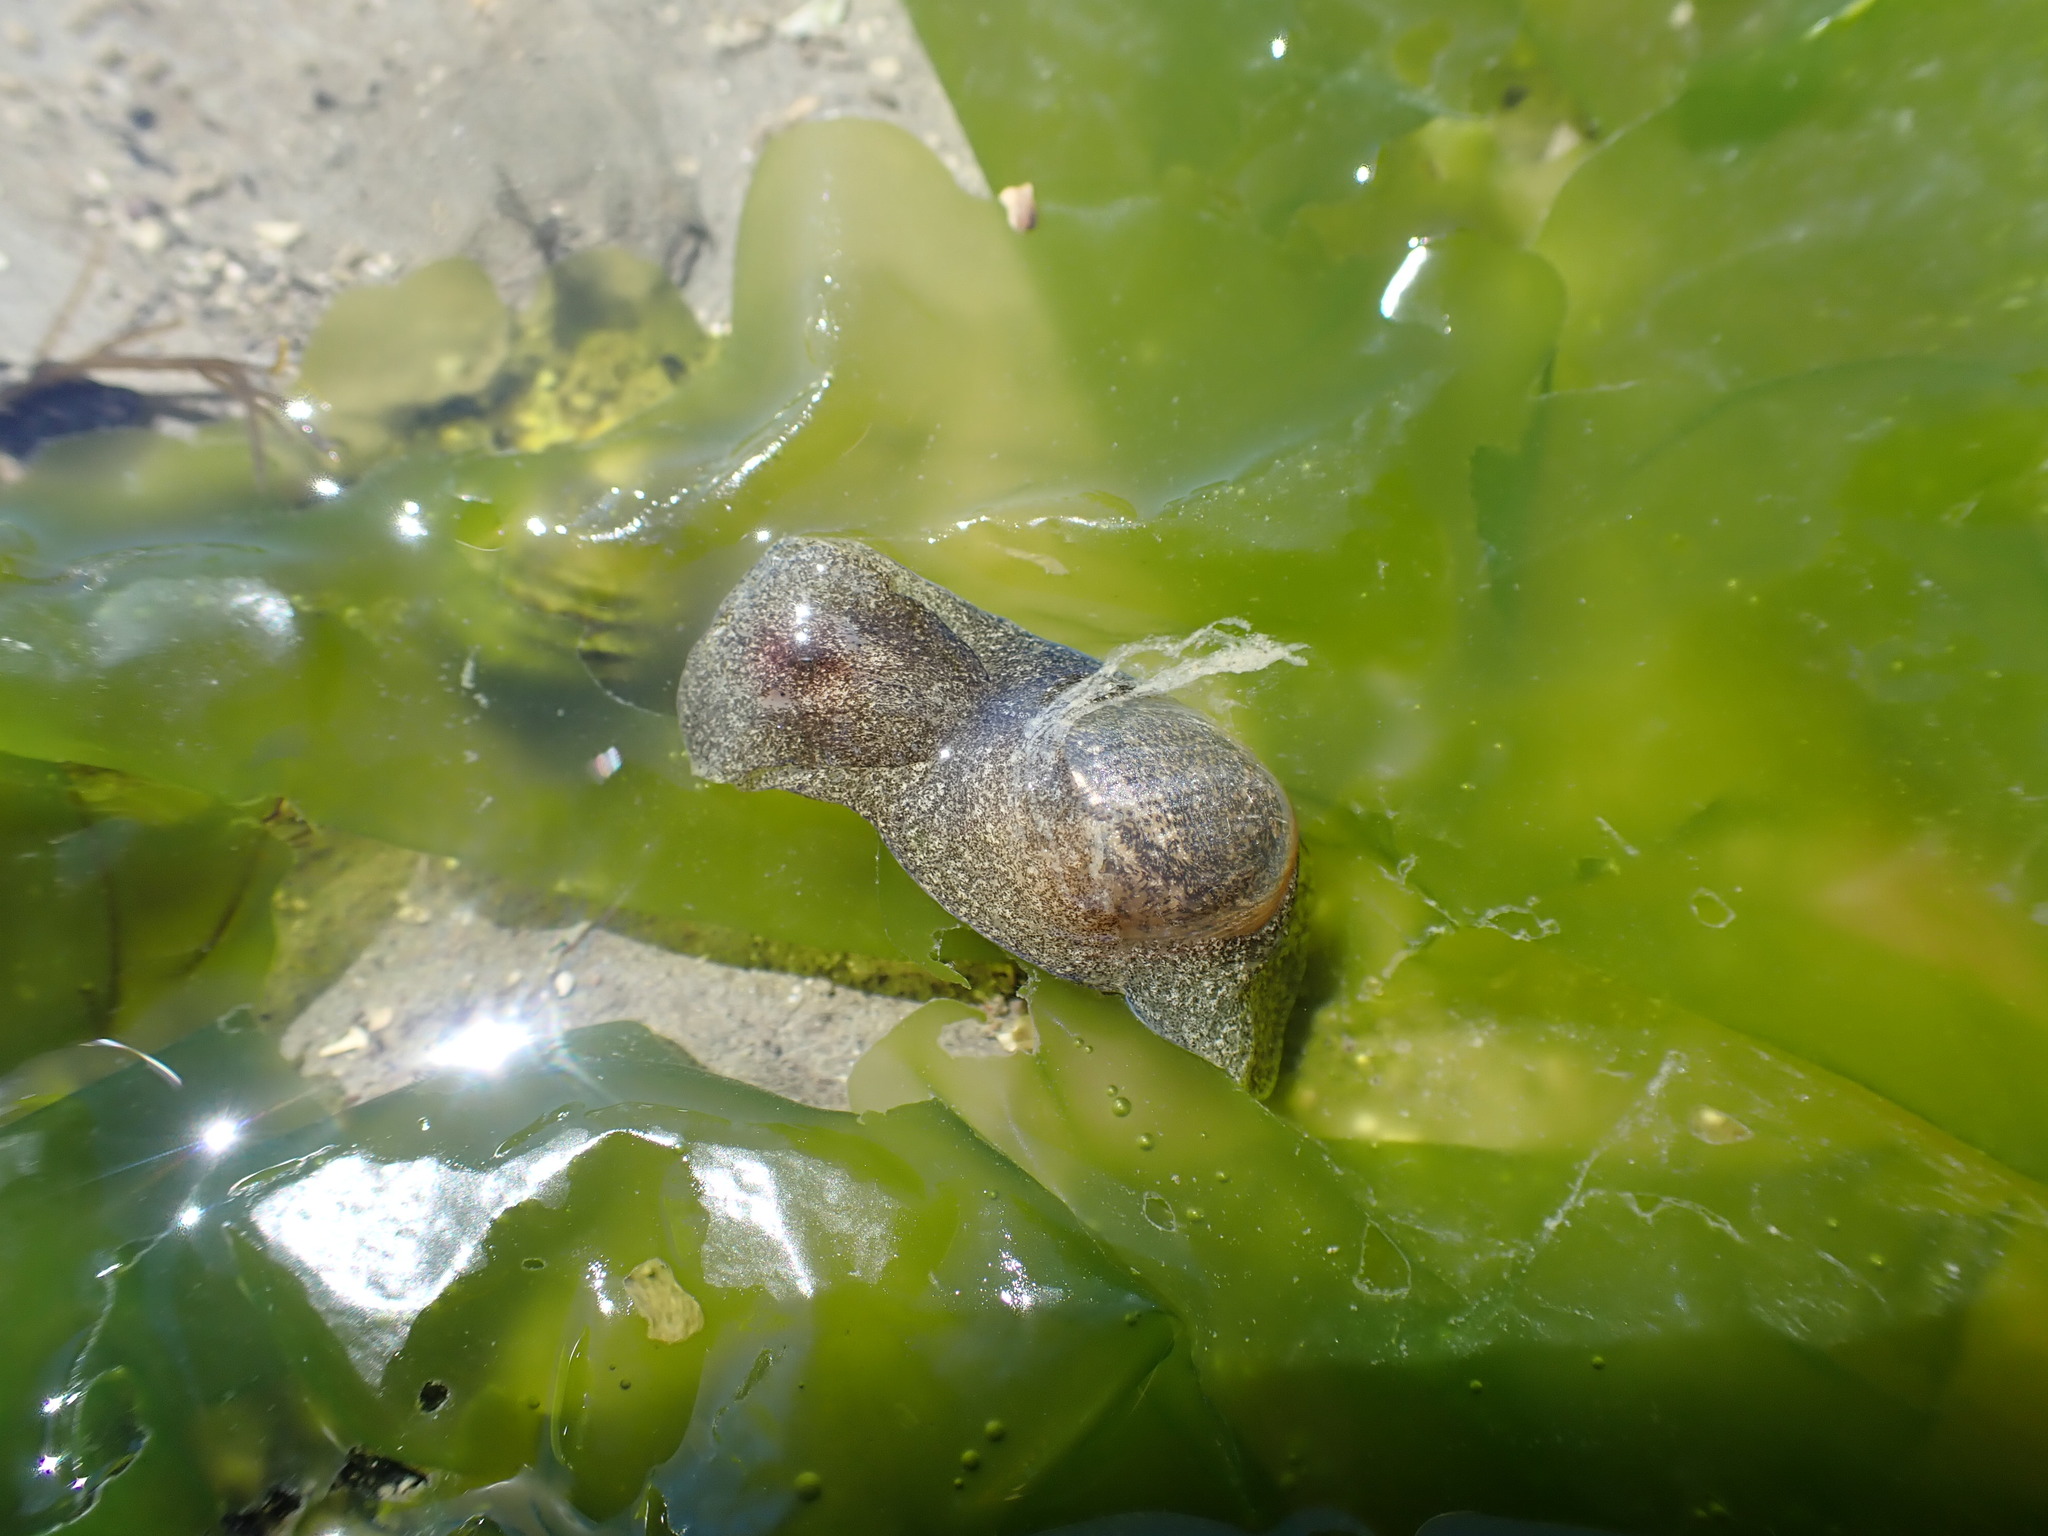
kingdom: Animalia
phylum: Mollusca
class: Gastropoda
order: Cephalaspidea
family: Haminoeidae
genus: Papawera
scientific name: Papawera zelandiae
